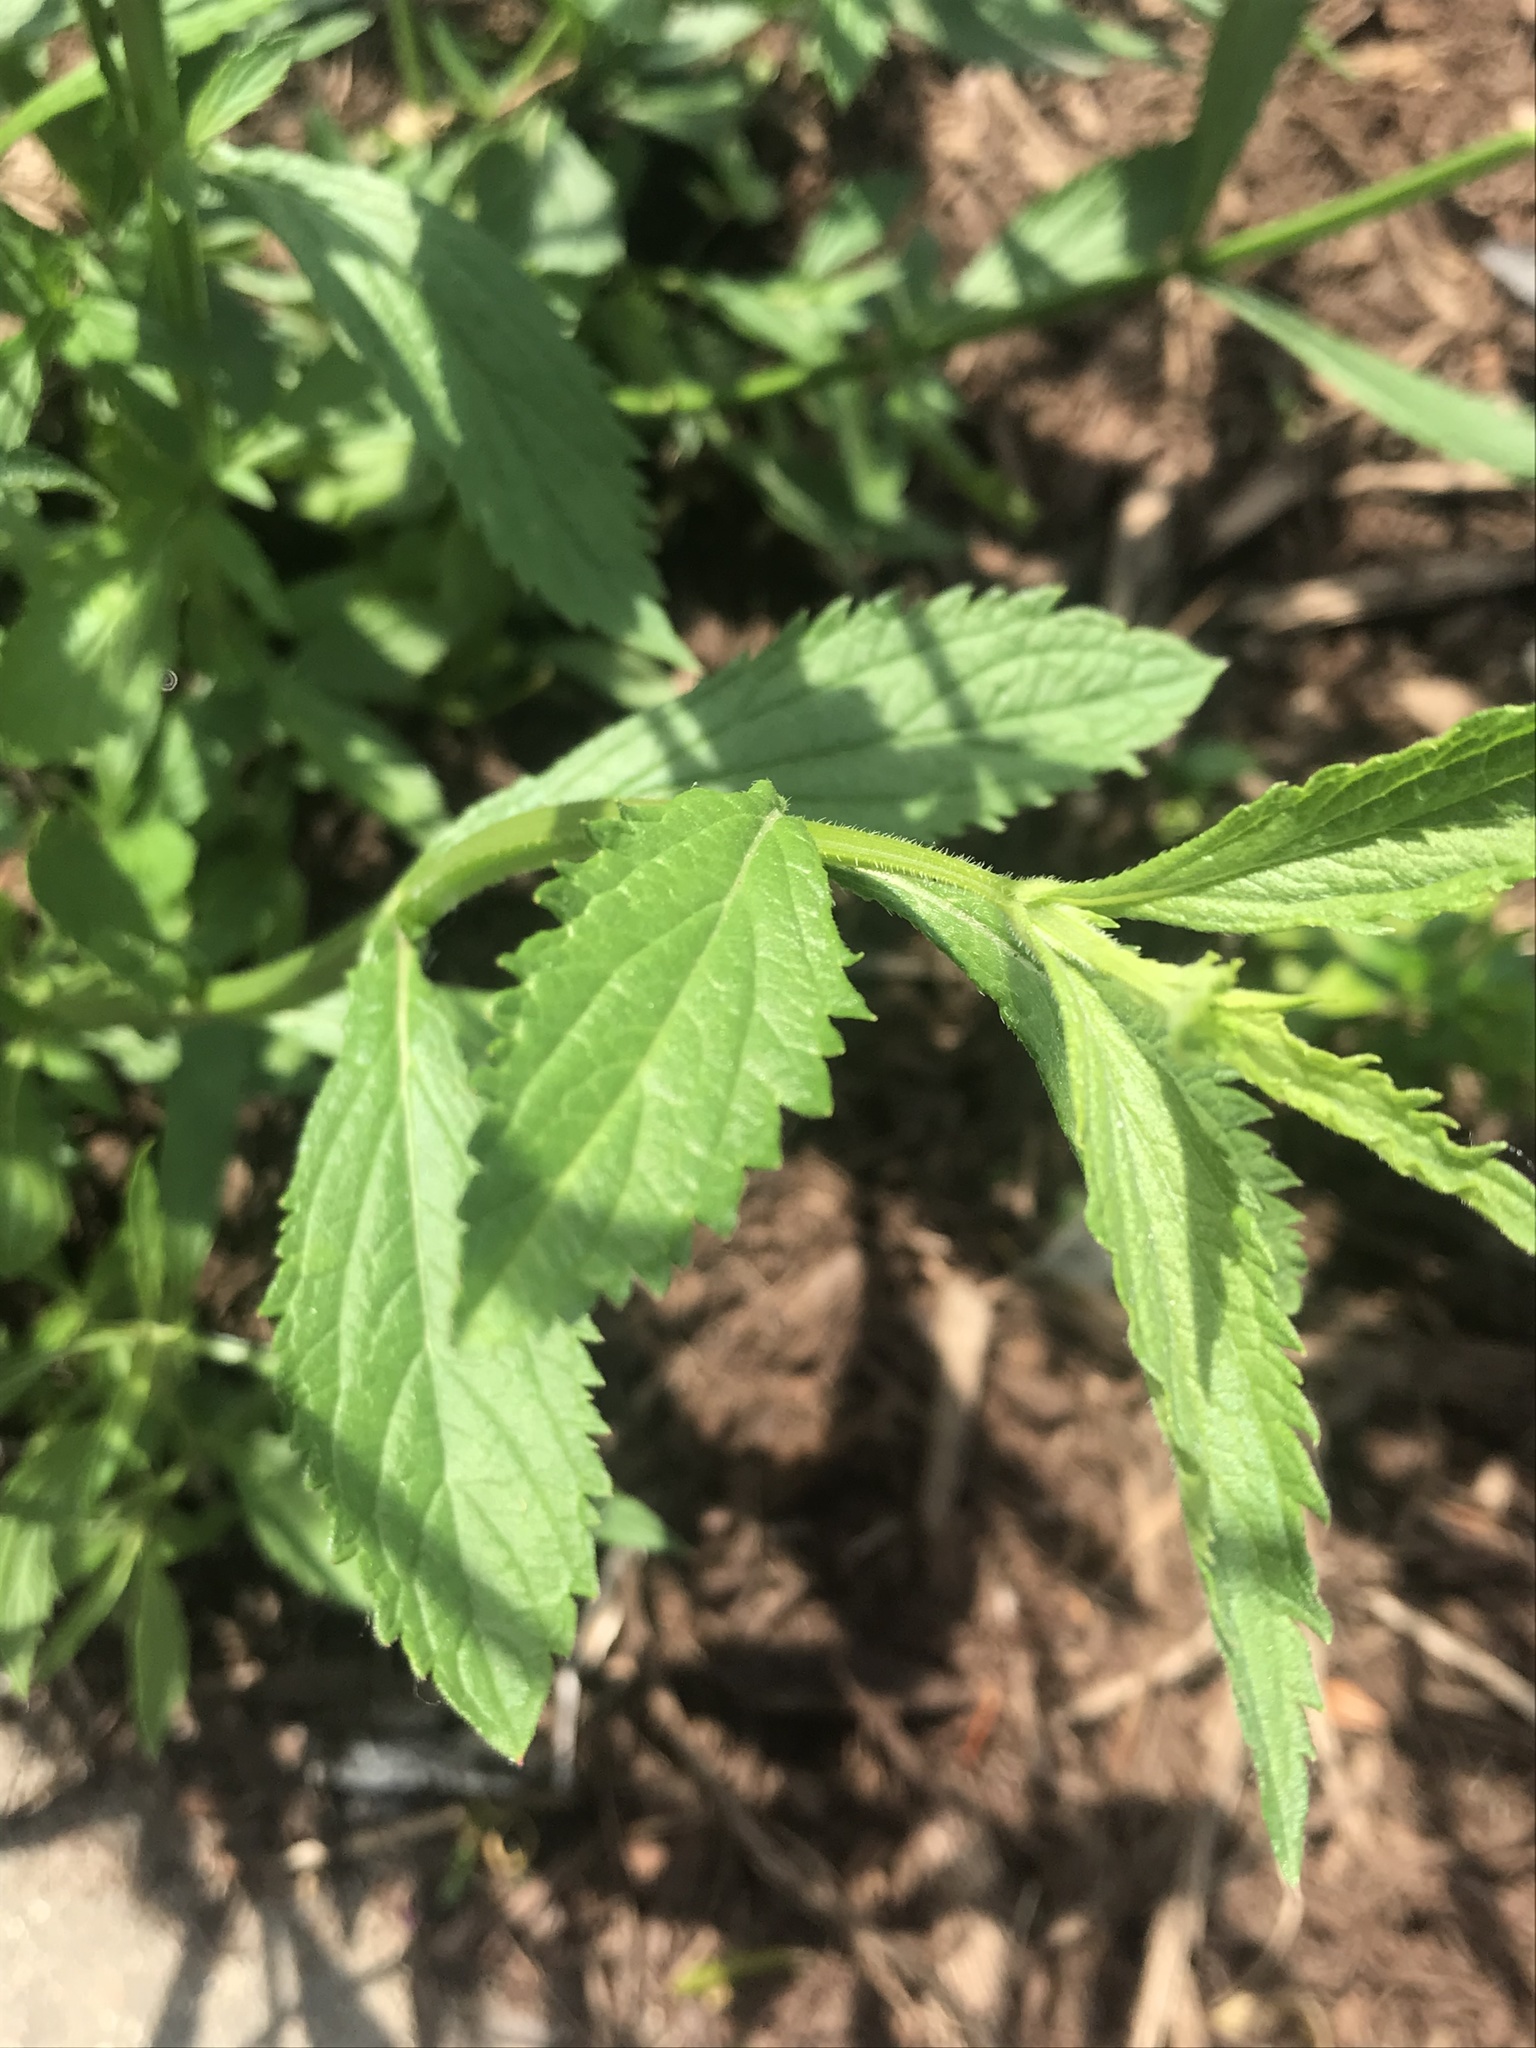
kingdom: Plantae
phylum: Tracheophyta
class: Magnoliopsida
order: Lamiales
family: Verbenaceae
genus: Verbena
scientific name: Verbena brasiliensis
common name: Brazilian vervain
